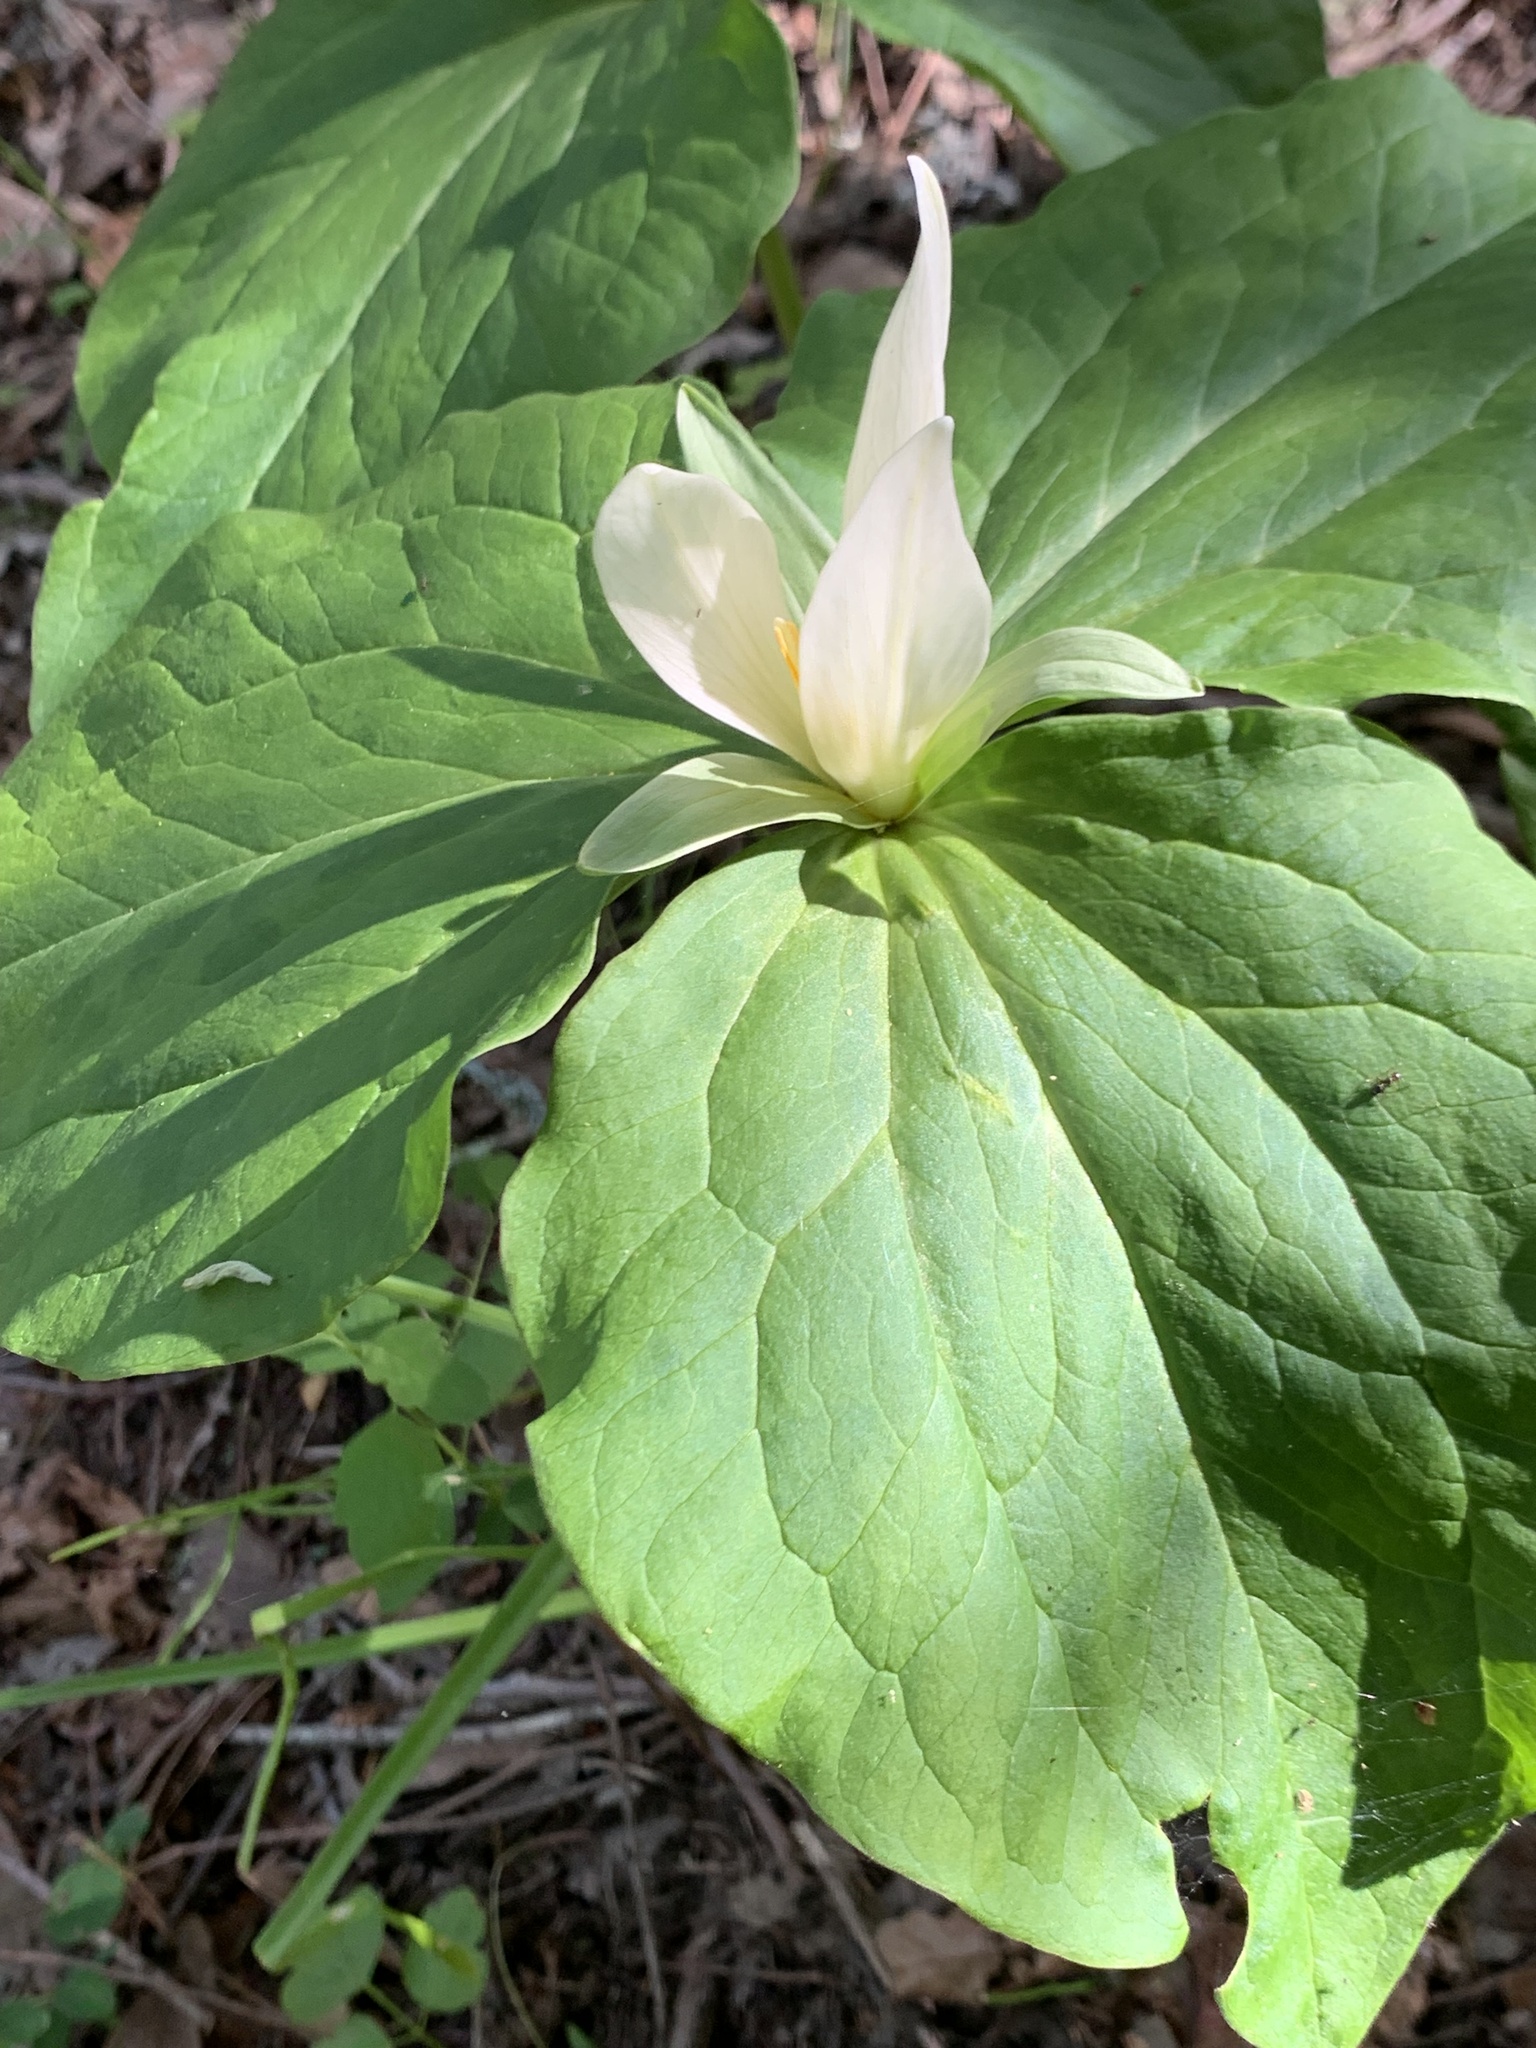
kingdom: Plantae
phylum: Tracheophyta
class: Liliopsida
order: Liliales
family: Melanthiaceae
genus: Trillium
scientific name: Trillium albidum
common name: Freeman's trillium
